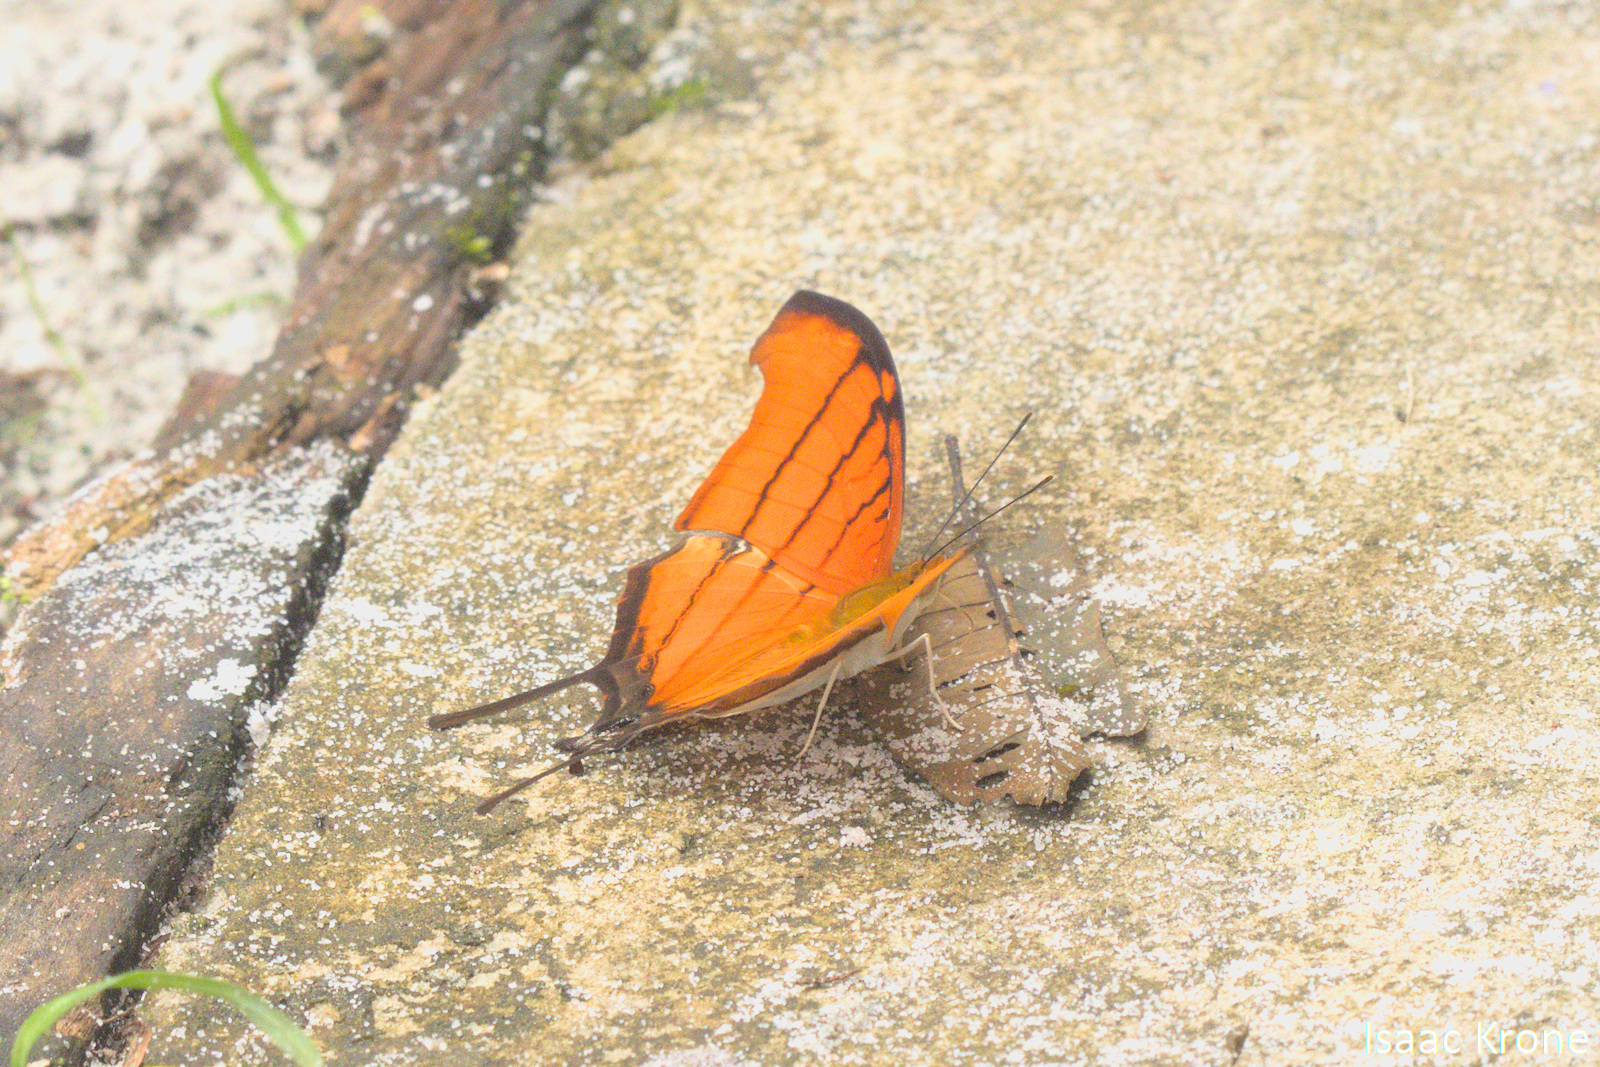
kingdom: Animalia
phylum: Arthropoda
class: Insecta
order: Lepidoptera
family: Nymphalidae
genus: Marpesia
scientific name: Marpesia petreus
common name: Red dagger wing
